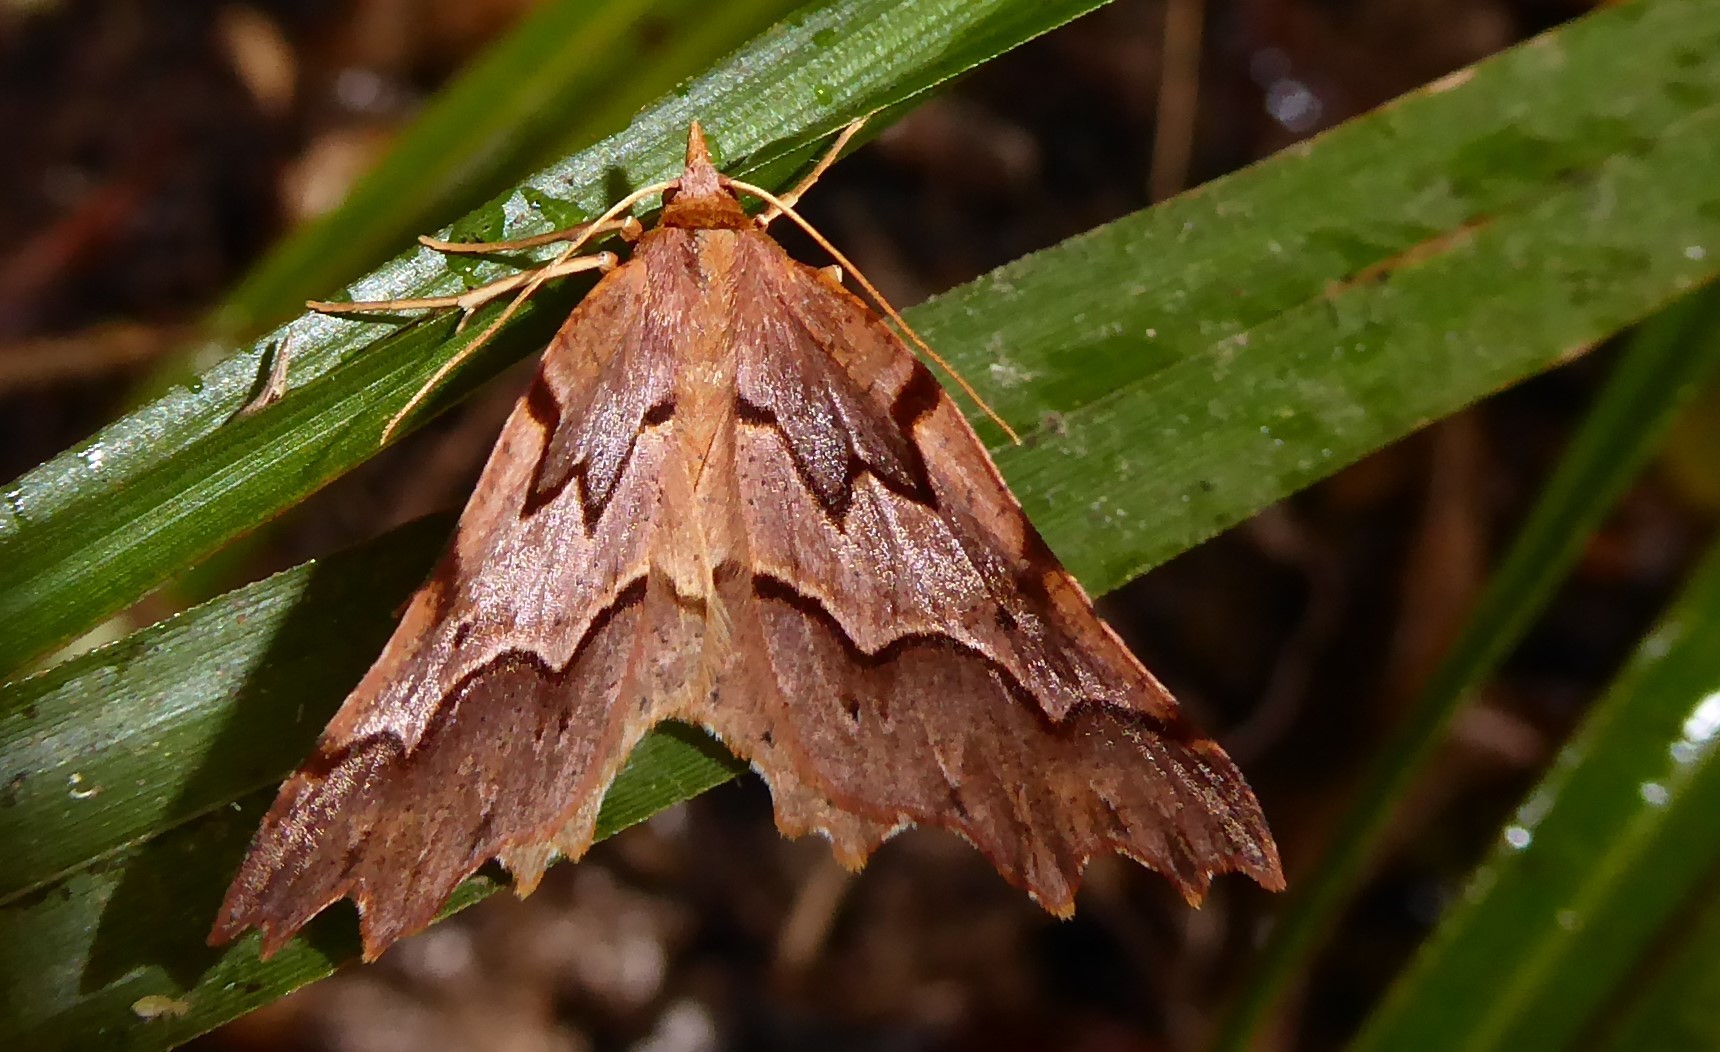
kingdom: Animalia
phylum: Arthropoda
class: Insecta
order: Lepidoptera
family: Geometridae
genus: Ischalis
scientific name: Ischalis fortinata
